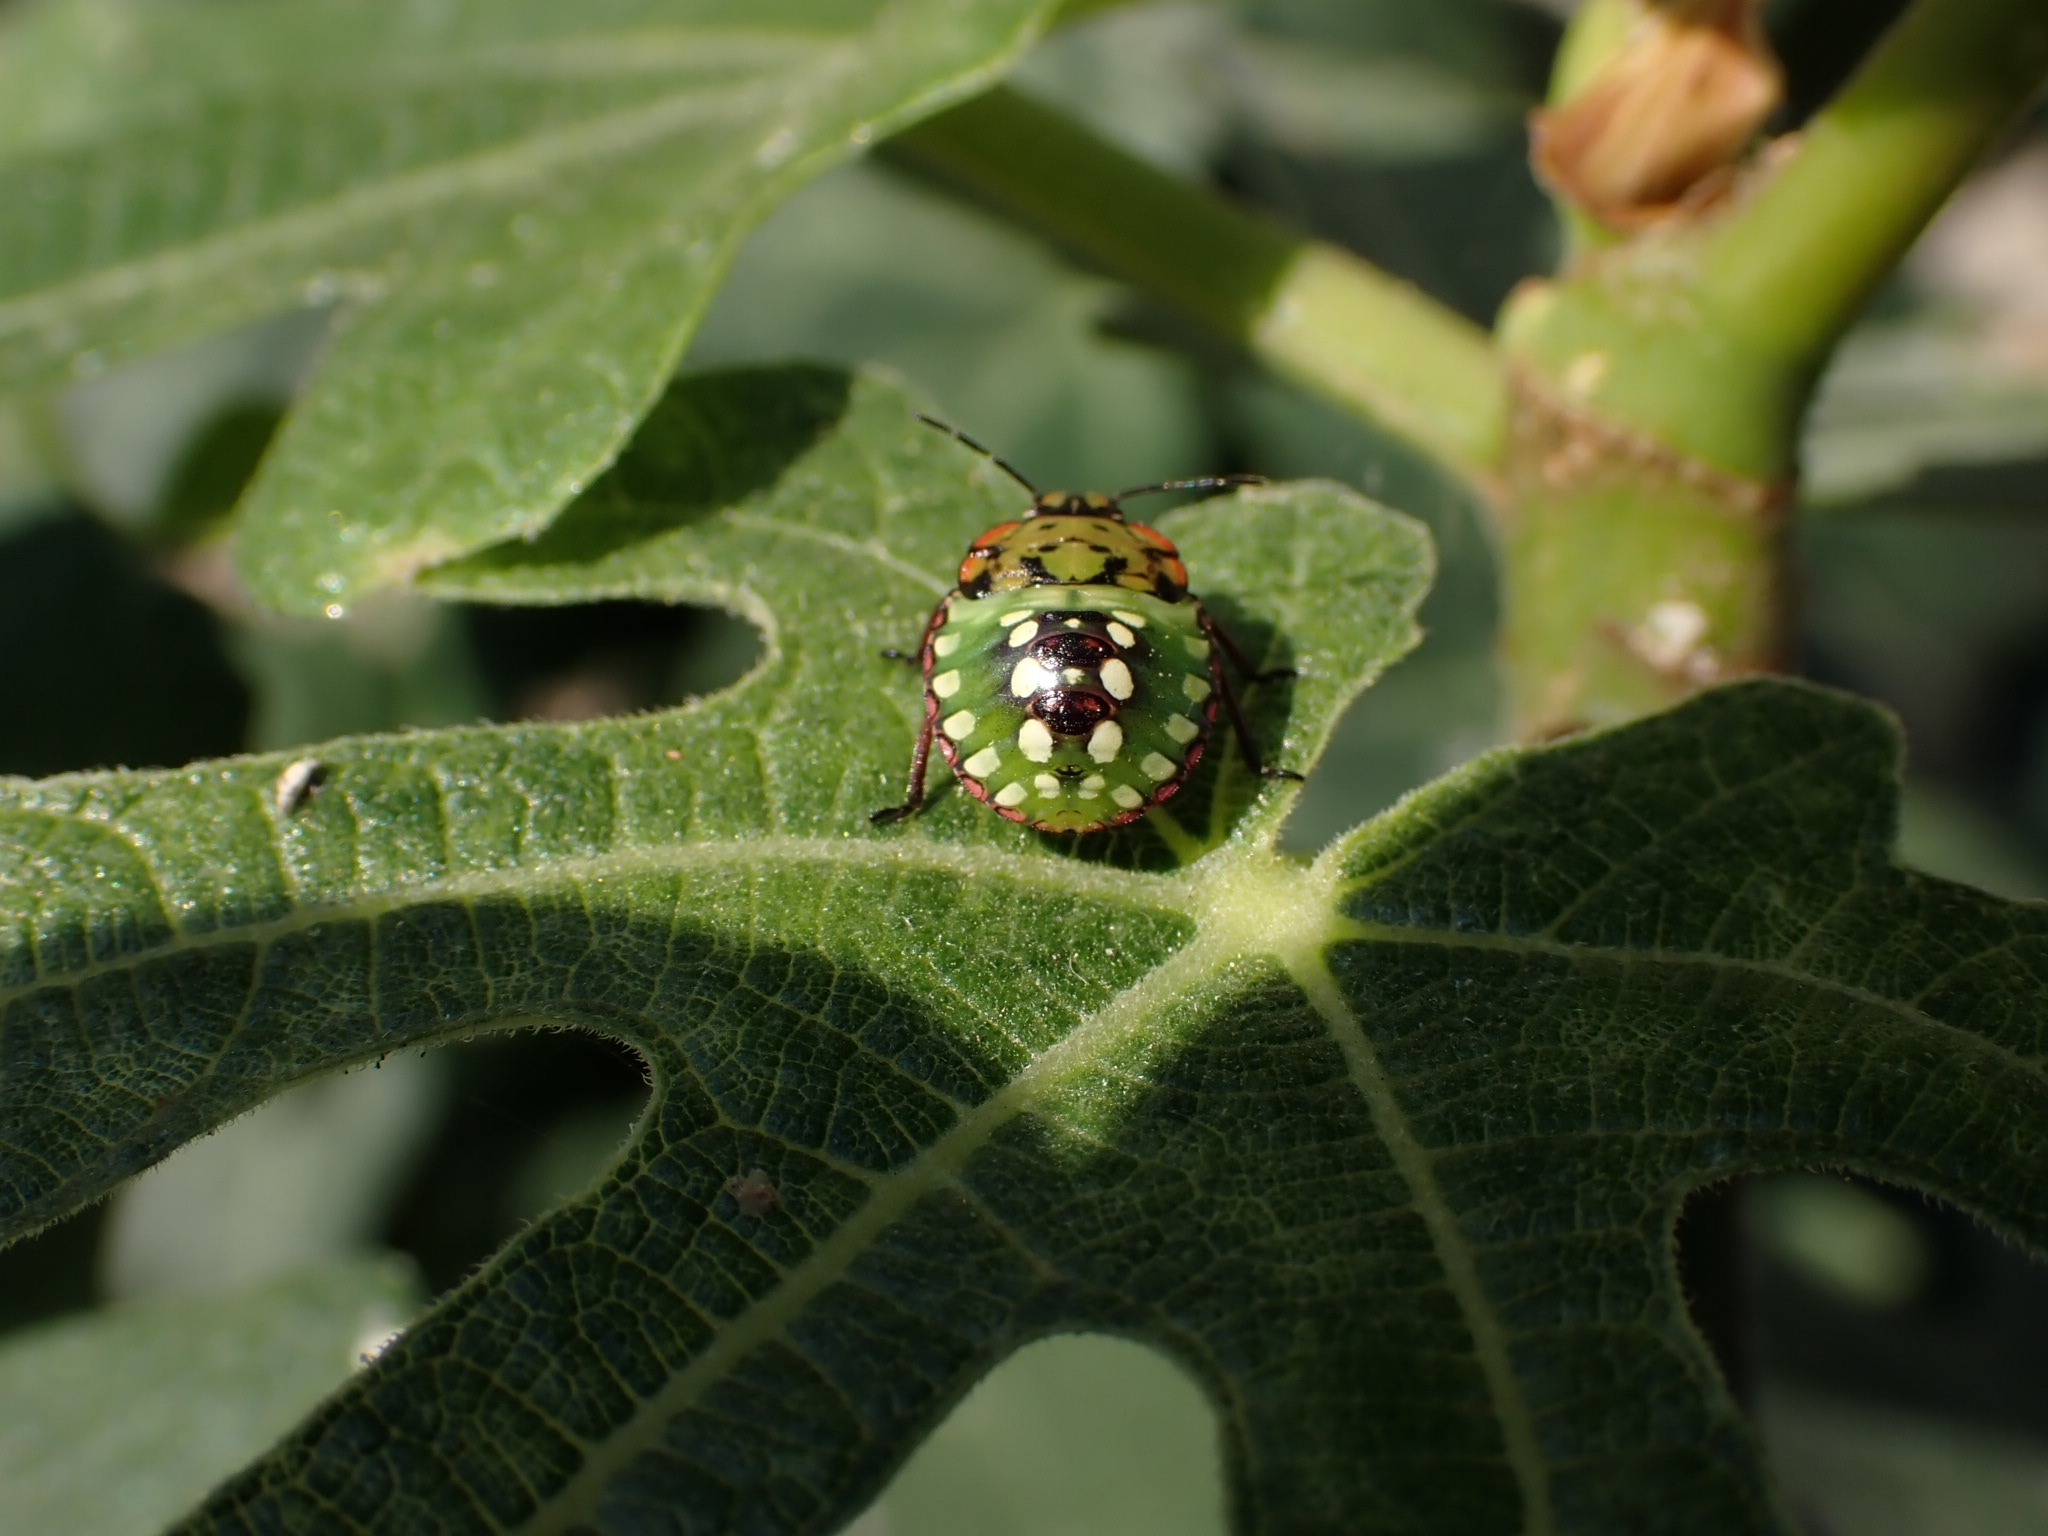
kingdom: Animalia
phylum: Arthropoda
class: Insecta
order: Hemiptera
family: Pentatomidae
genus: Nezara
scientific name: Nezara viridula
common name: Southern green stink bug
